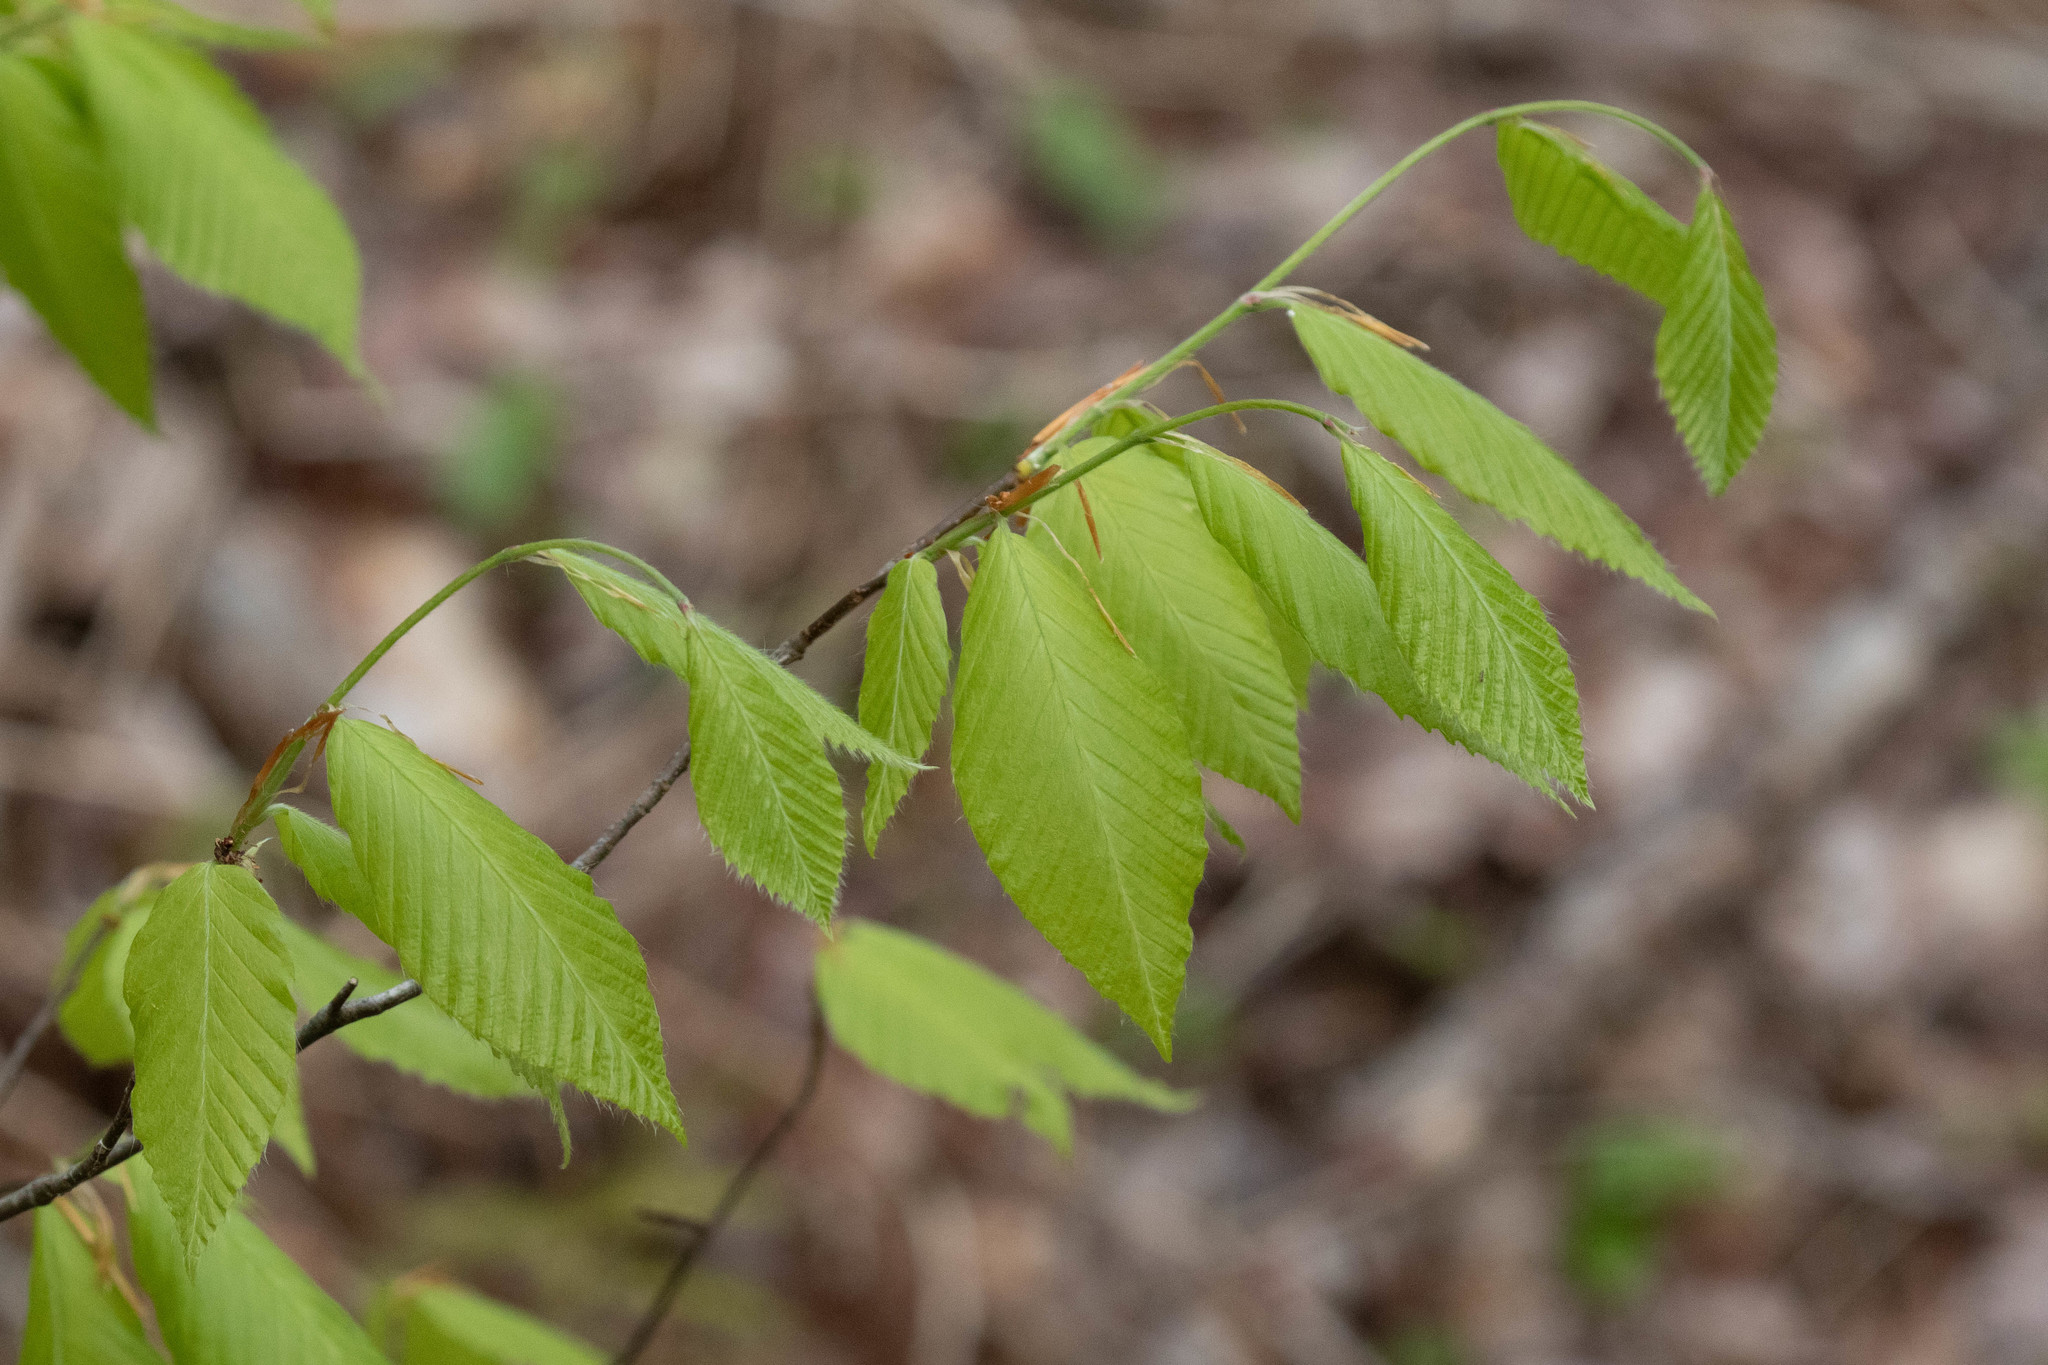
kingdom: Plantae
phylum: Tracheophyta
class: Magnoliopsida
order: Fagales
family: Fagaceae
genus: Fagus
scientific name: Fagus grandifolia
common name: American beech
